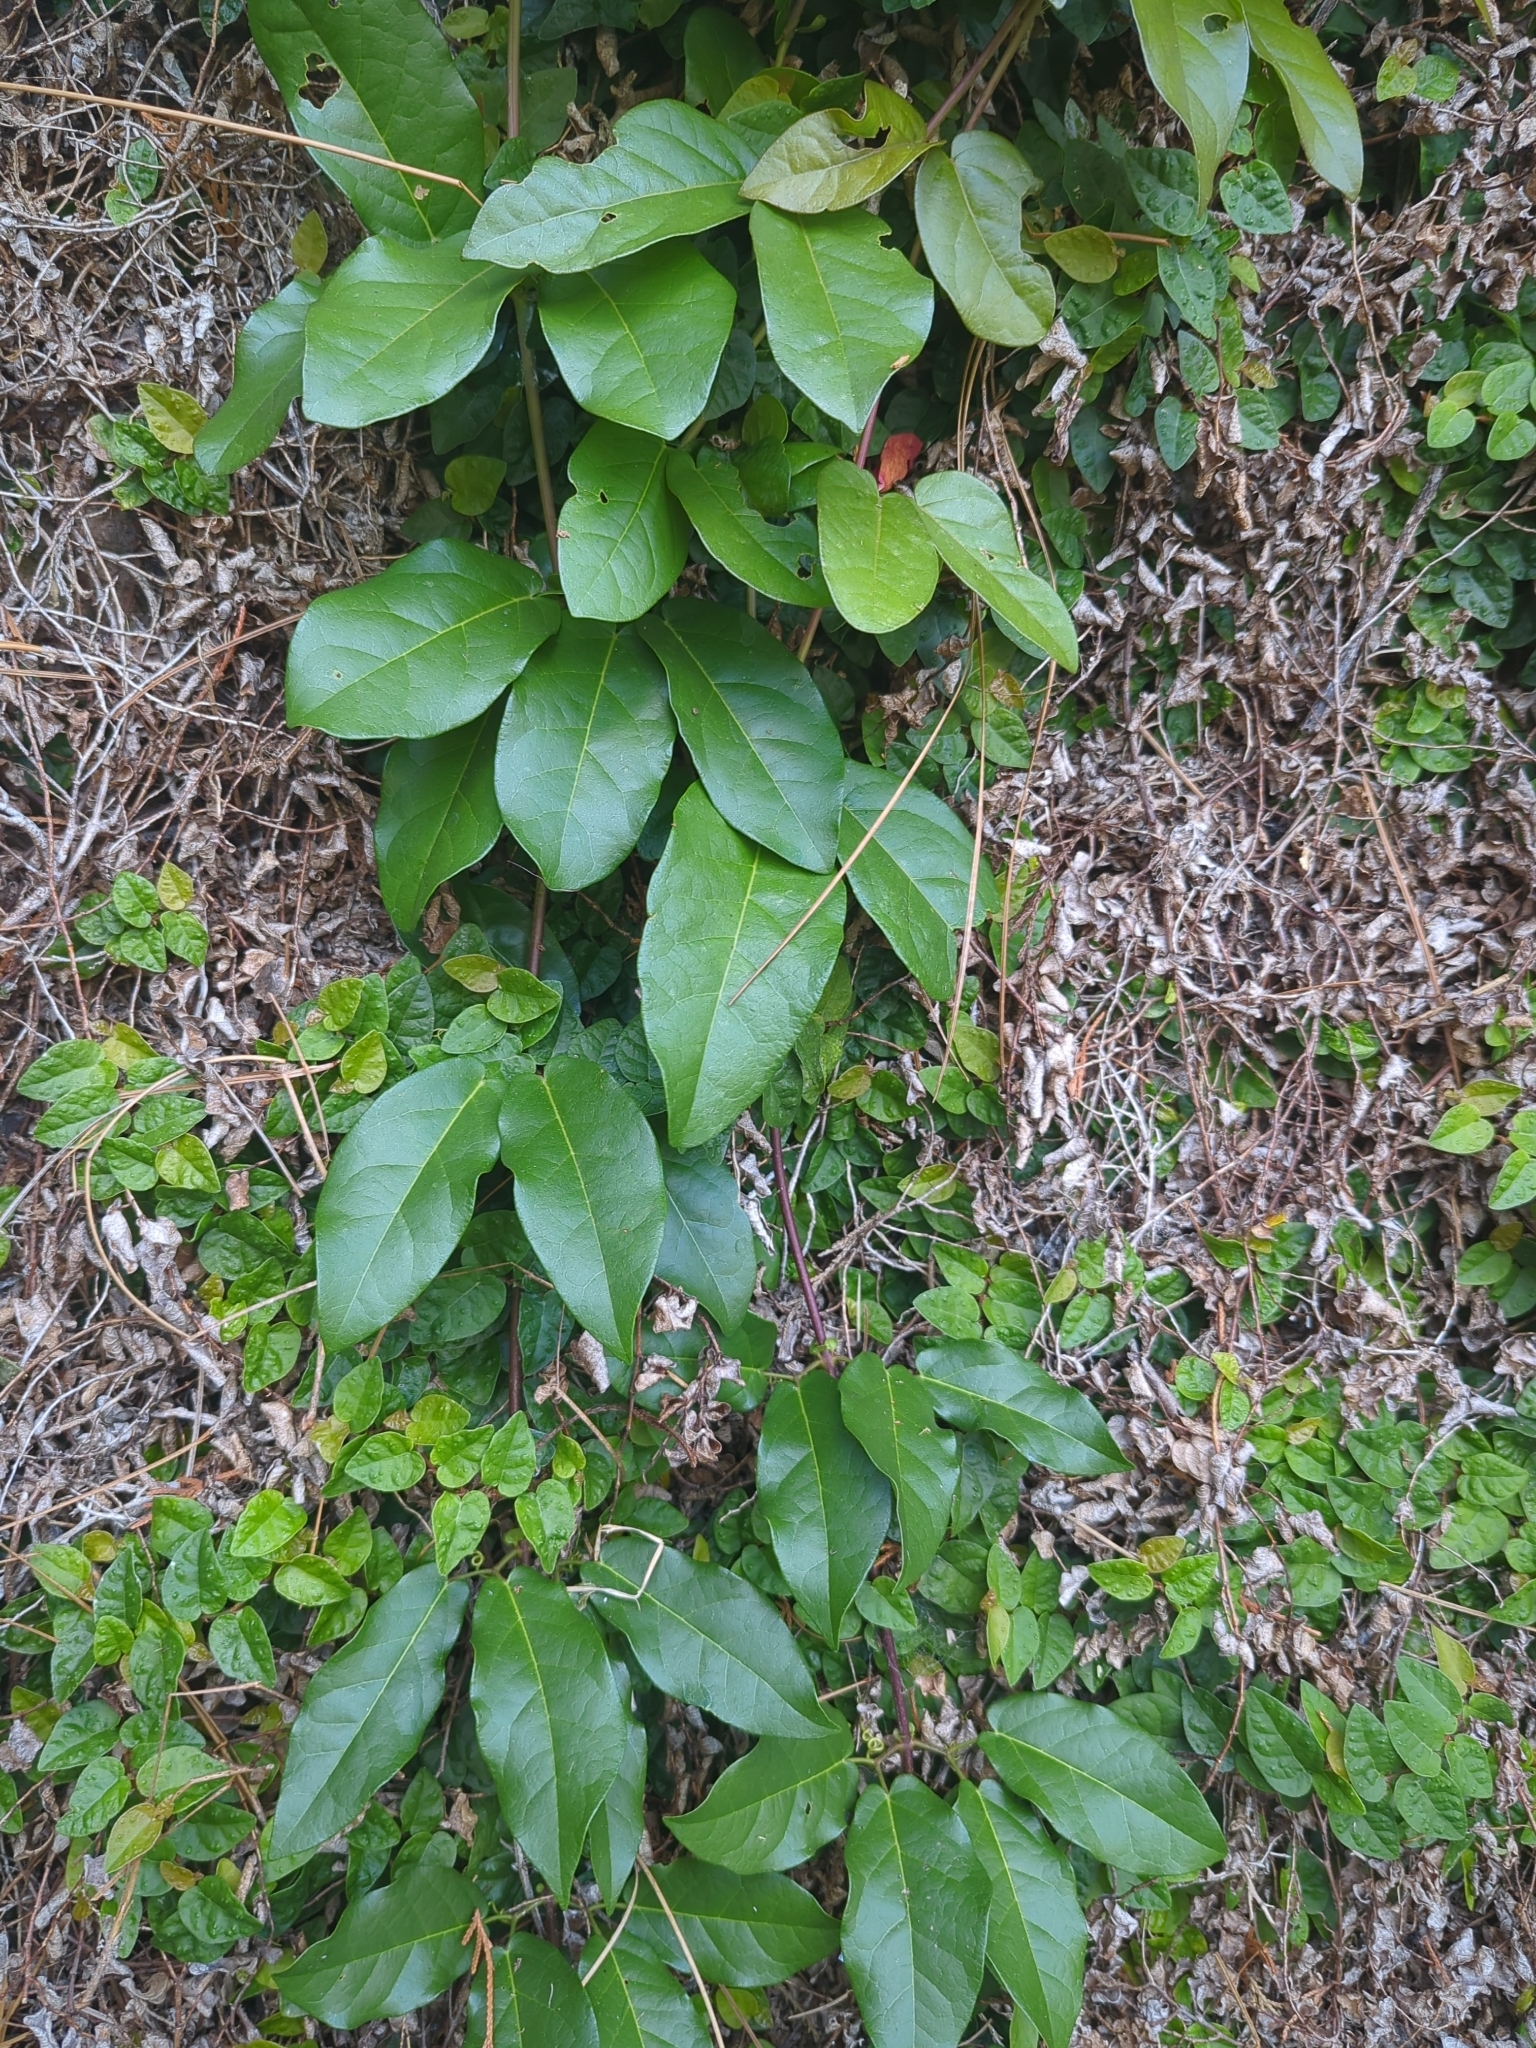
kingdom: Plantae
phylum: Tracheophyta
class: Magnoliopsida
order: Lamiales
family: Bignoniaceae
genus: Bignonia
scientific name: Bignonia capreolata
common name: Crossvine
